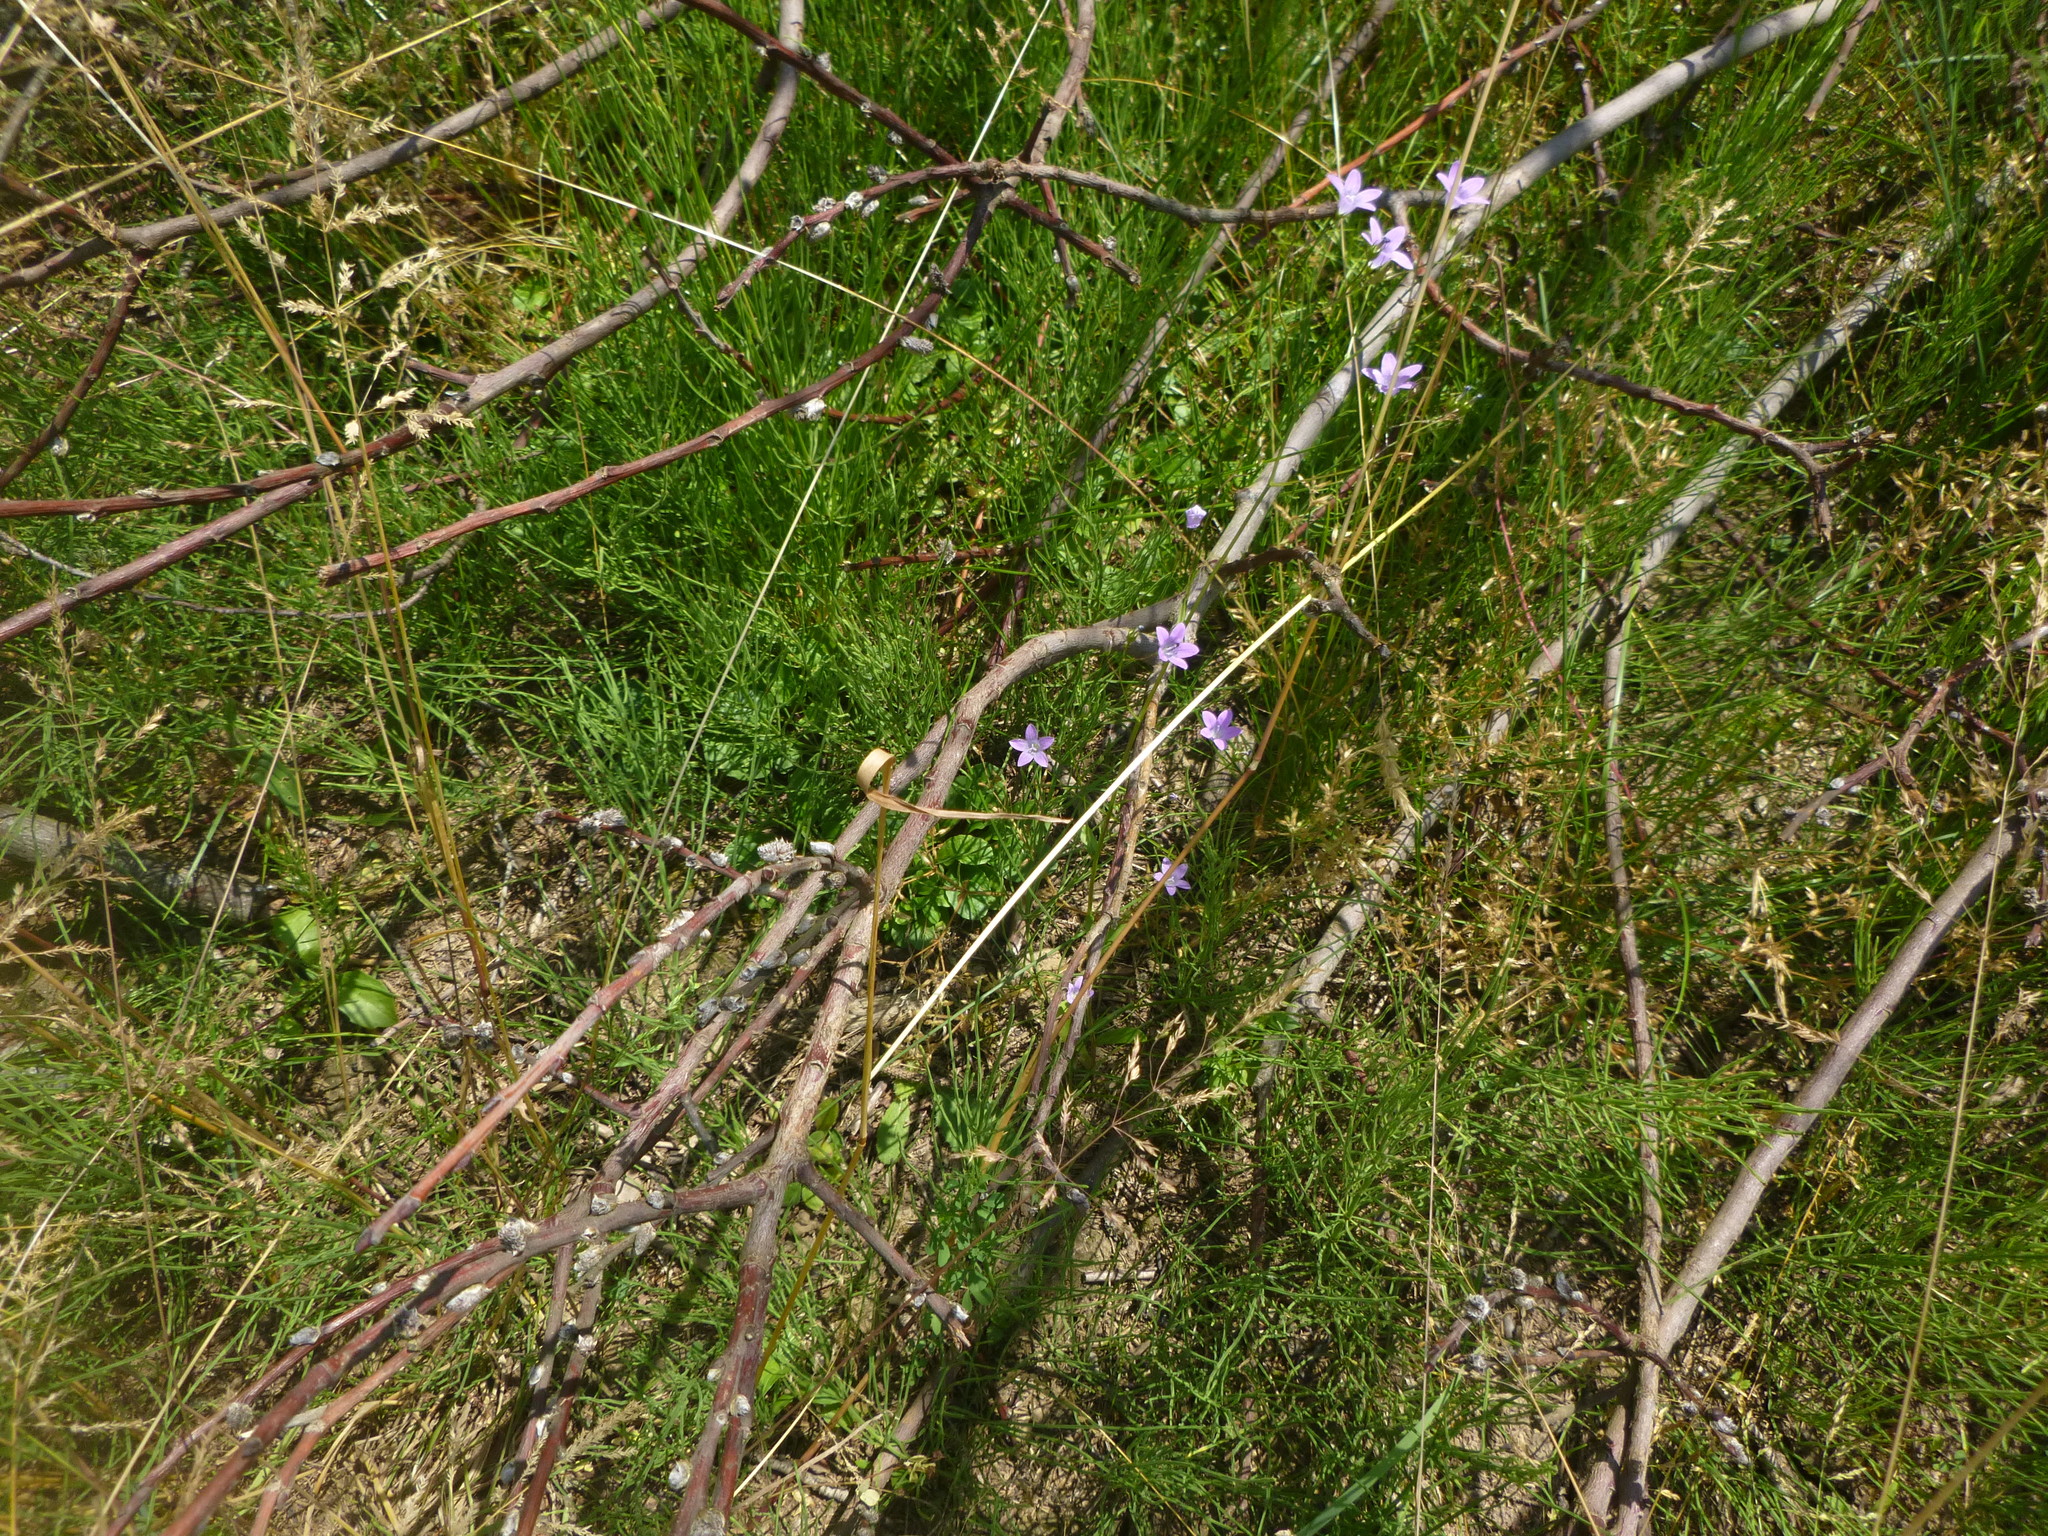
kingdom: Plantae
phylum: Tracheophyta
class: Magnoliopsida
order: Asterales
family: Campanulaceae
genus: Campanula
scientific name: Campanula patula
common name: Spreading bellflower
